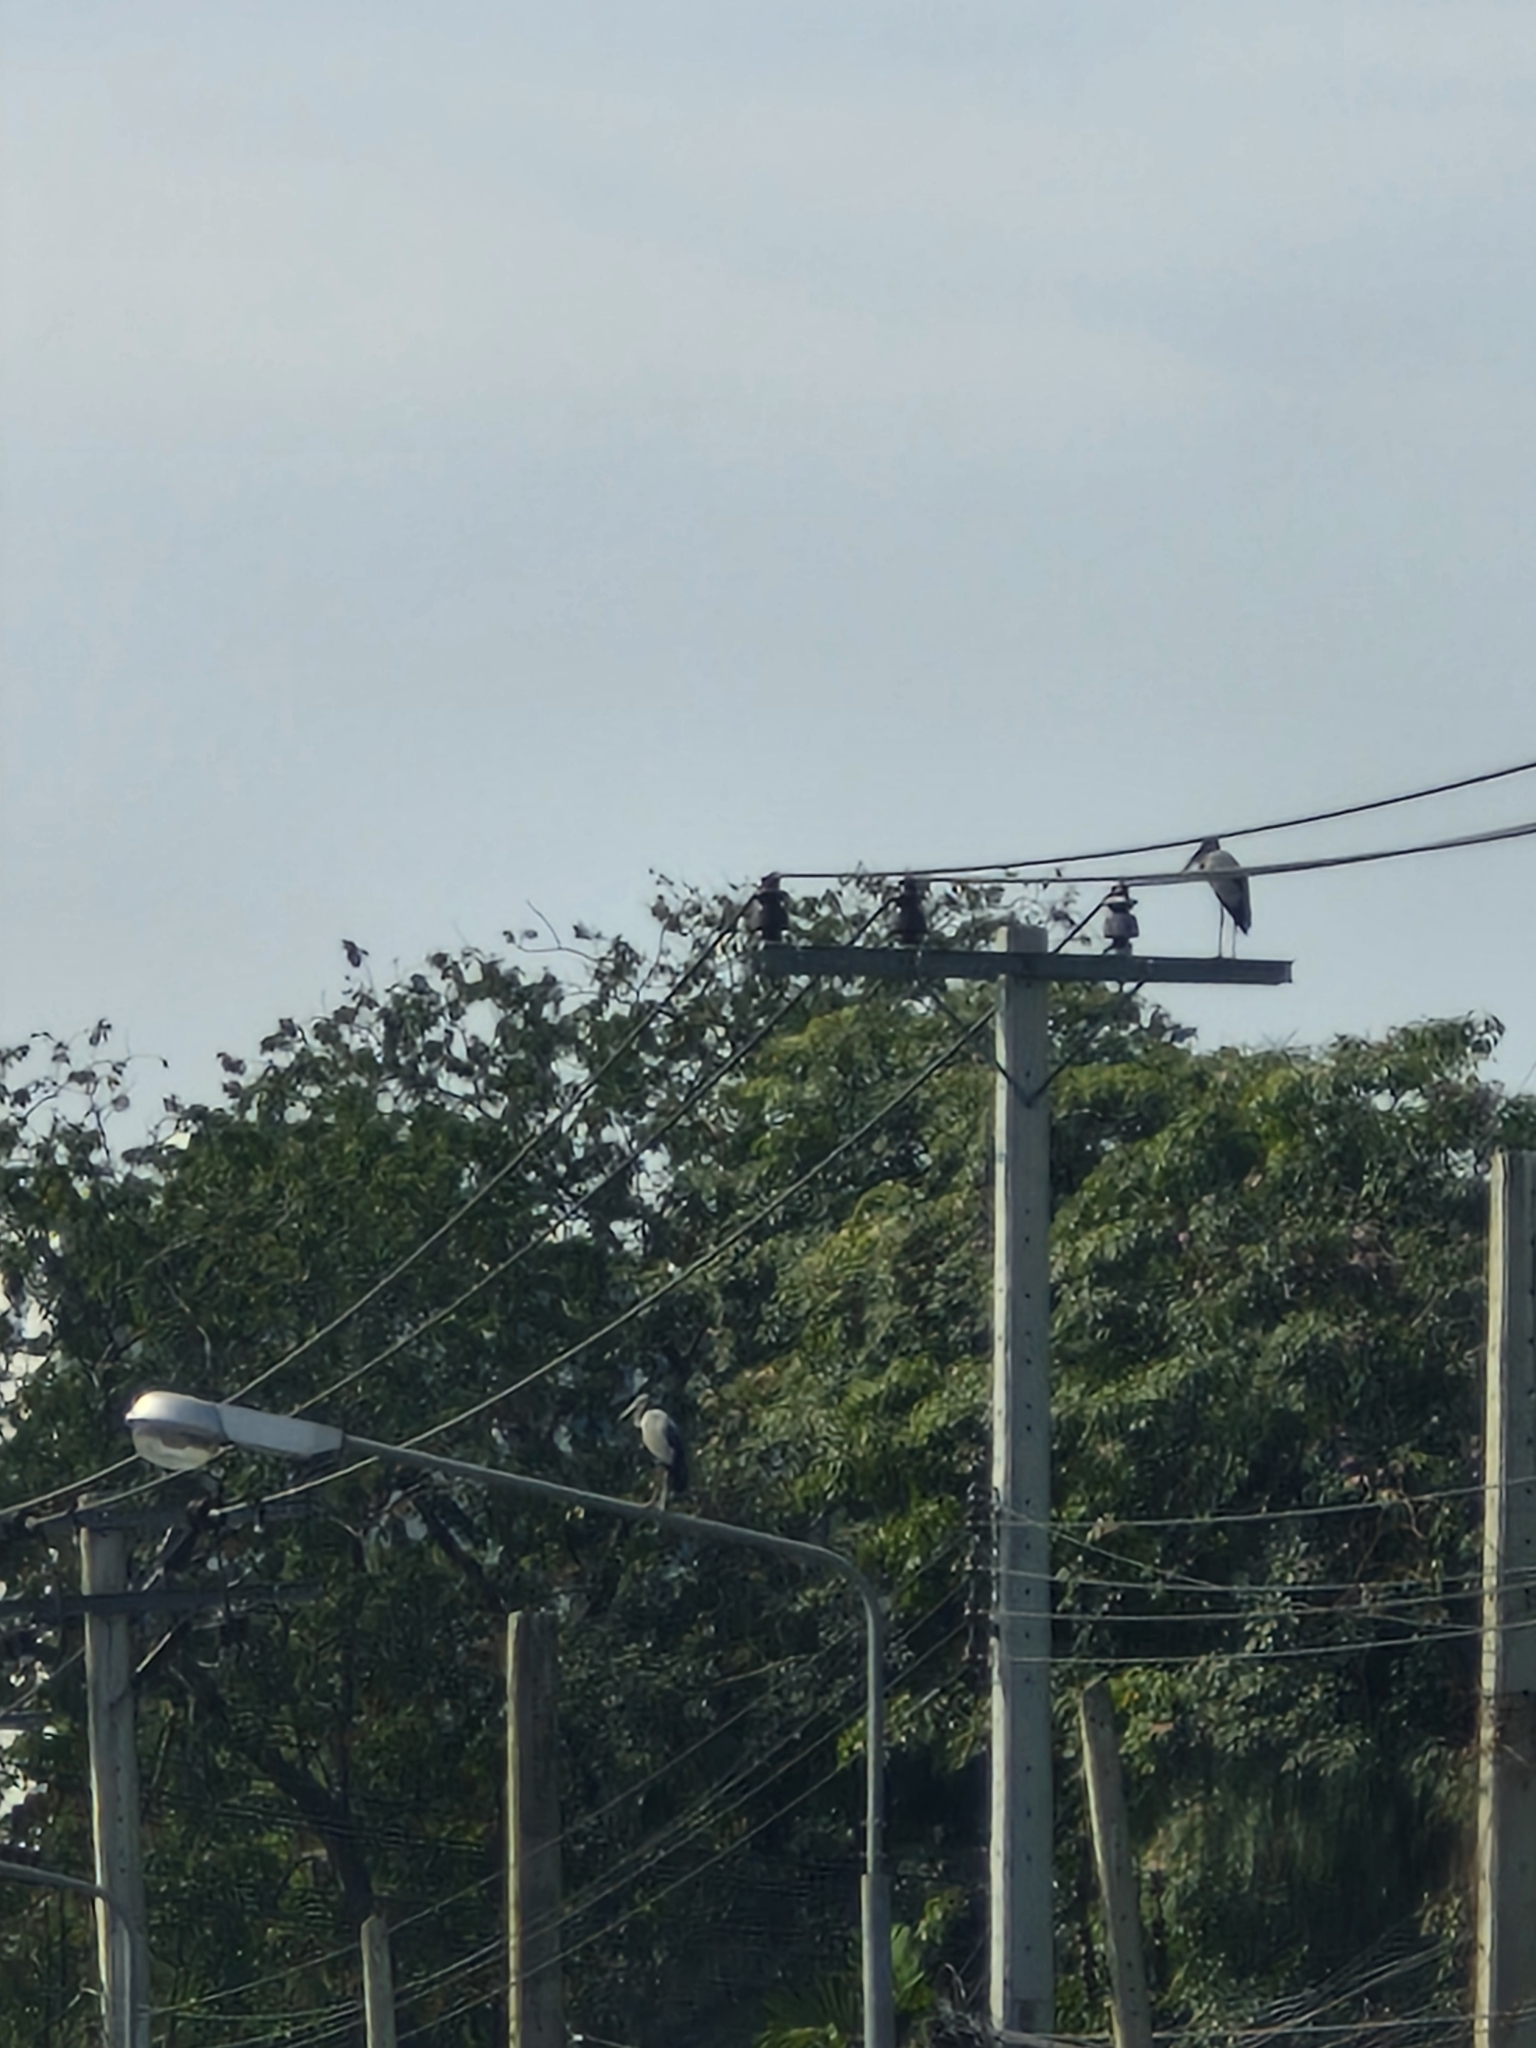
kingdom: Animalia
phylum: Chordata
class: Aves
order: Ciconiiformes
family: Ciconiidae
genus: Anastomus
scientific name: Anastomus oscitans
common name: Asian openbill
